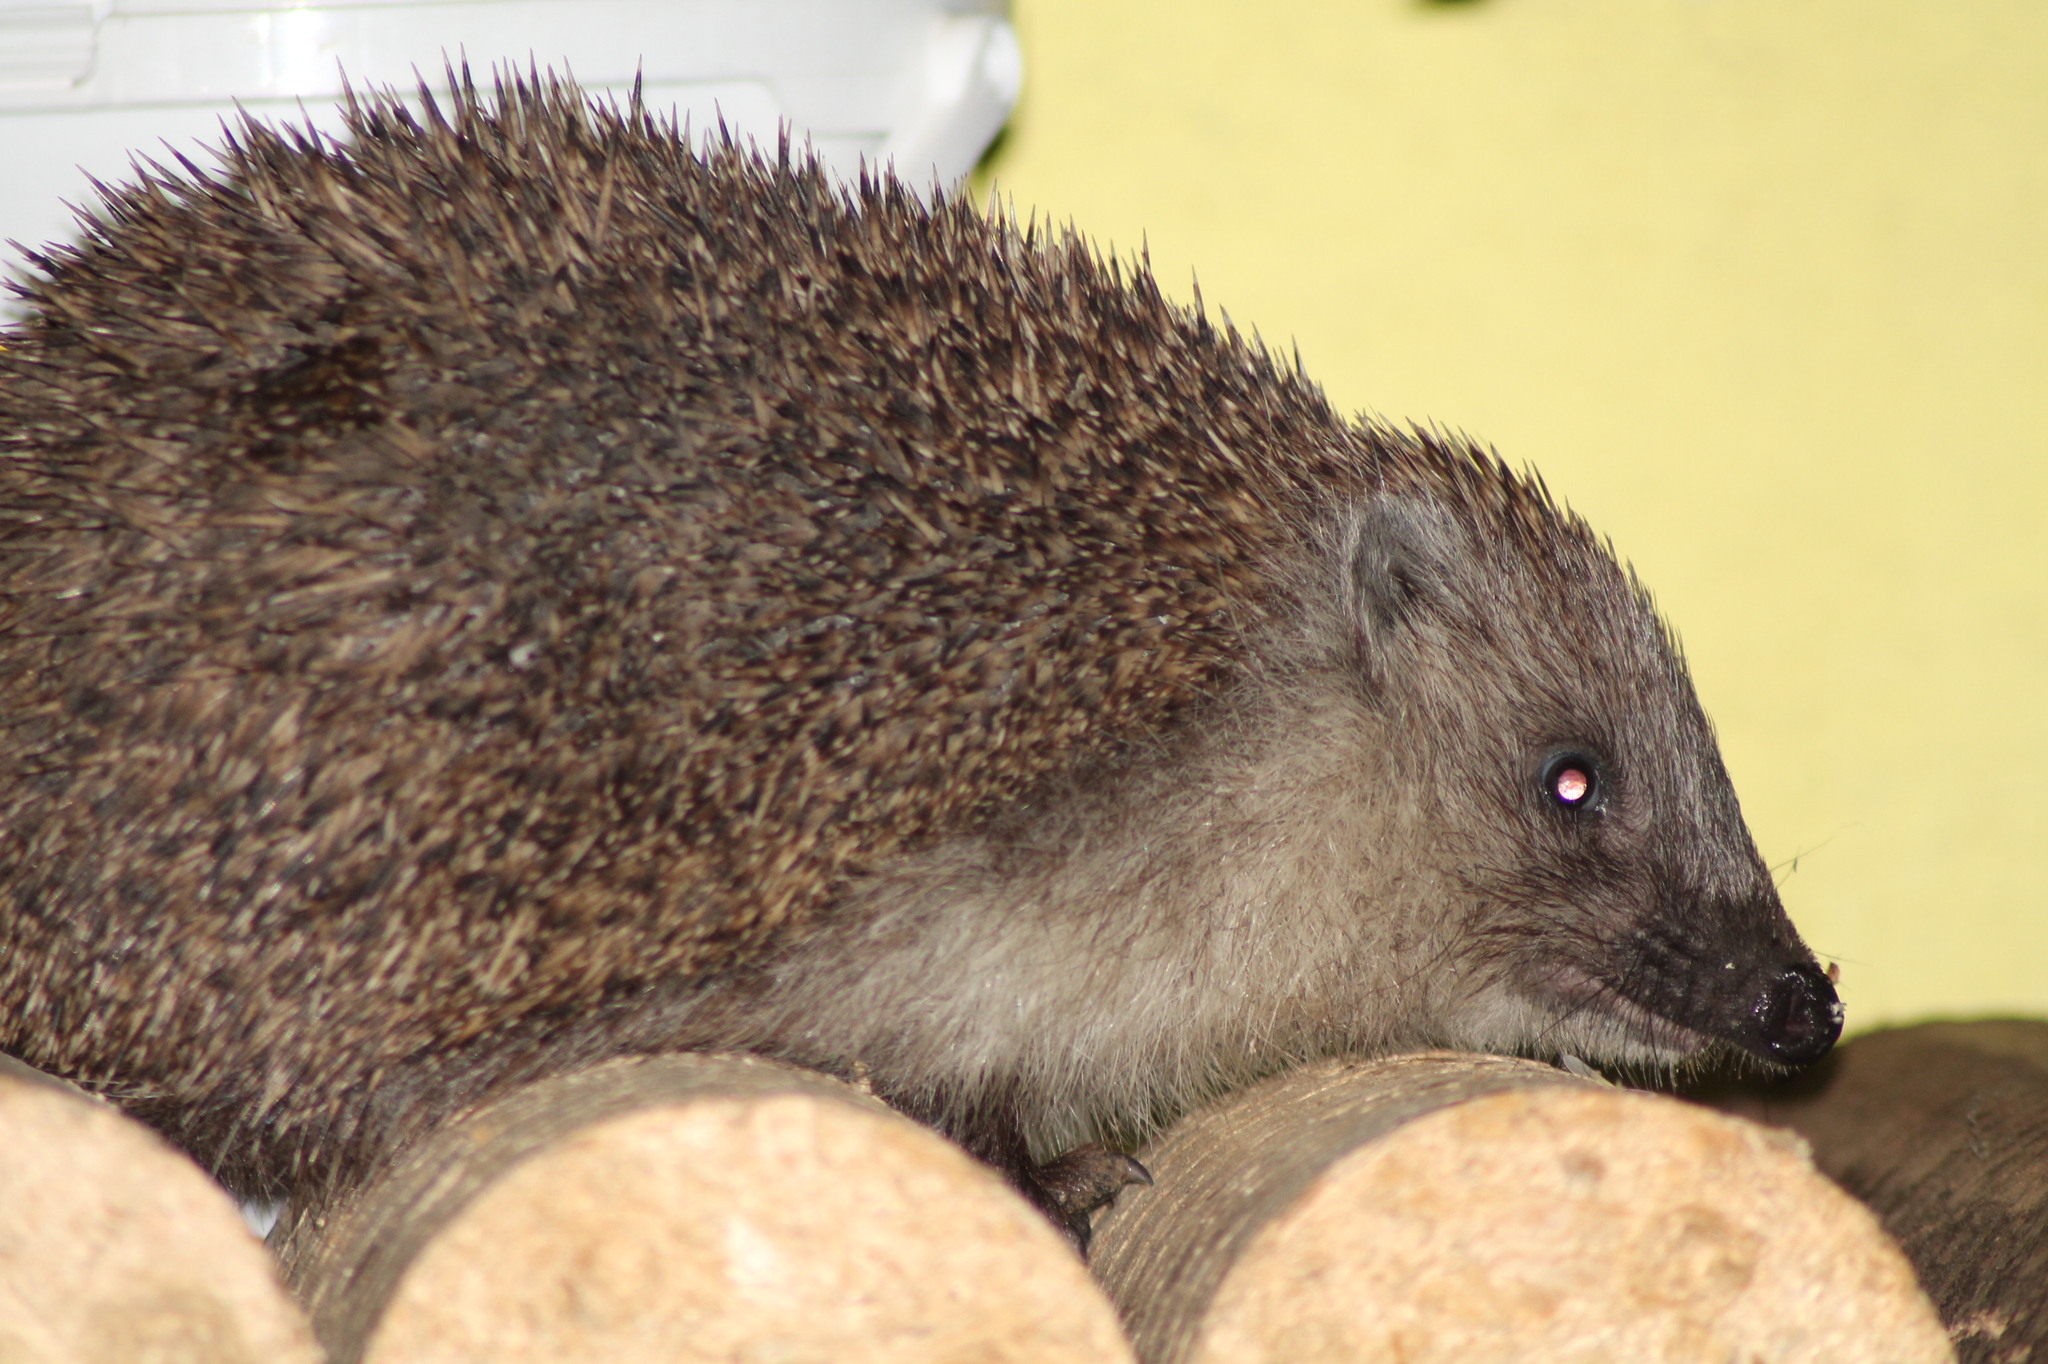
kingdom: Animalia
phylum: Chordata
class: Mammalia
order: Erinaceomorpha
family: Erinaceidae
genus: Erinaceus
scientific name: Erinaceus roumanicus
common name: Northern white-breasted hedgehog
